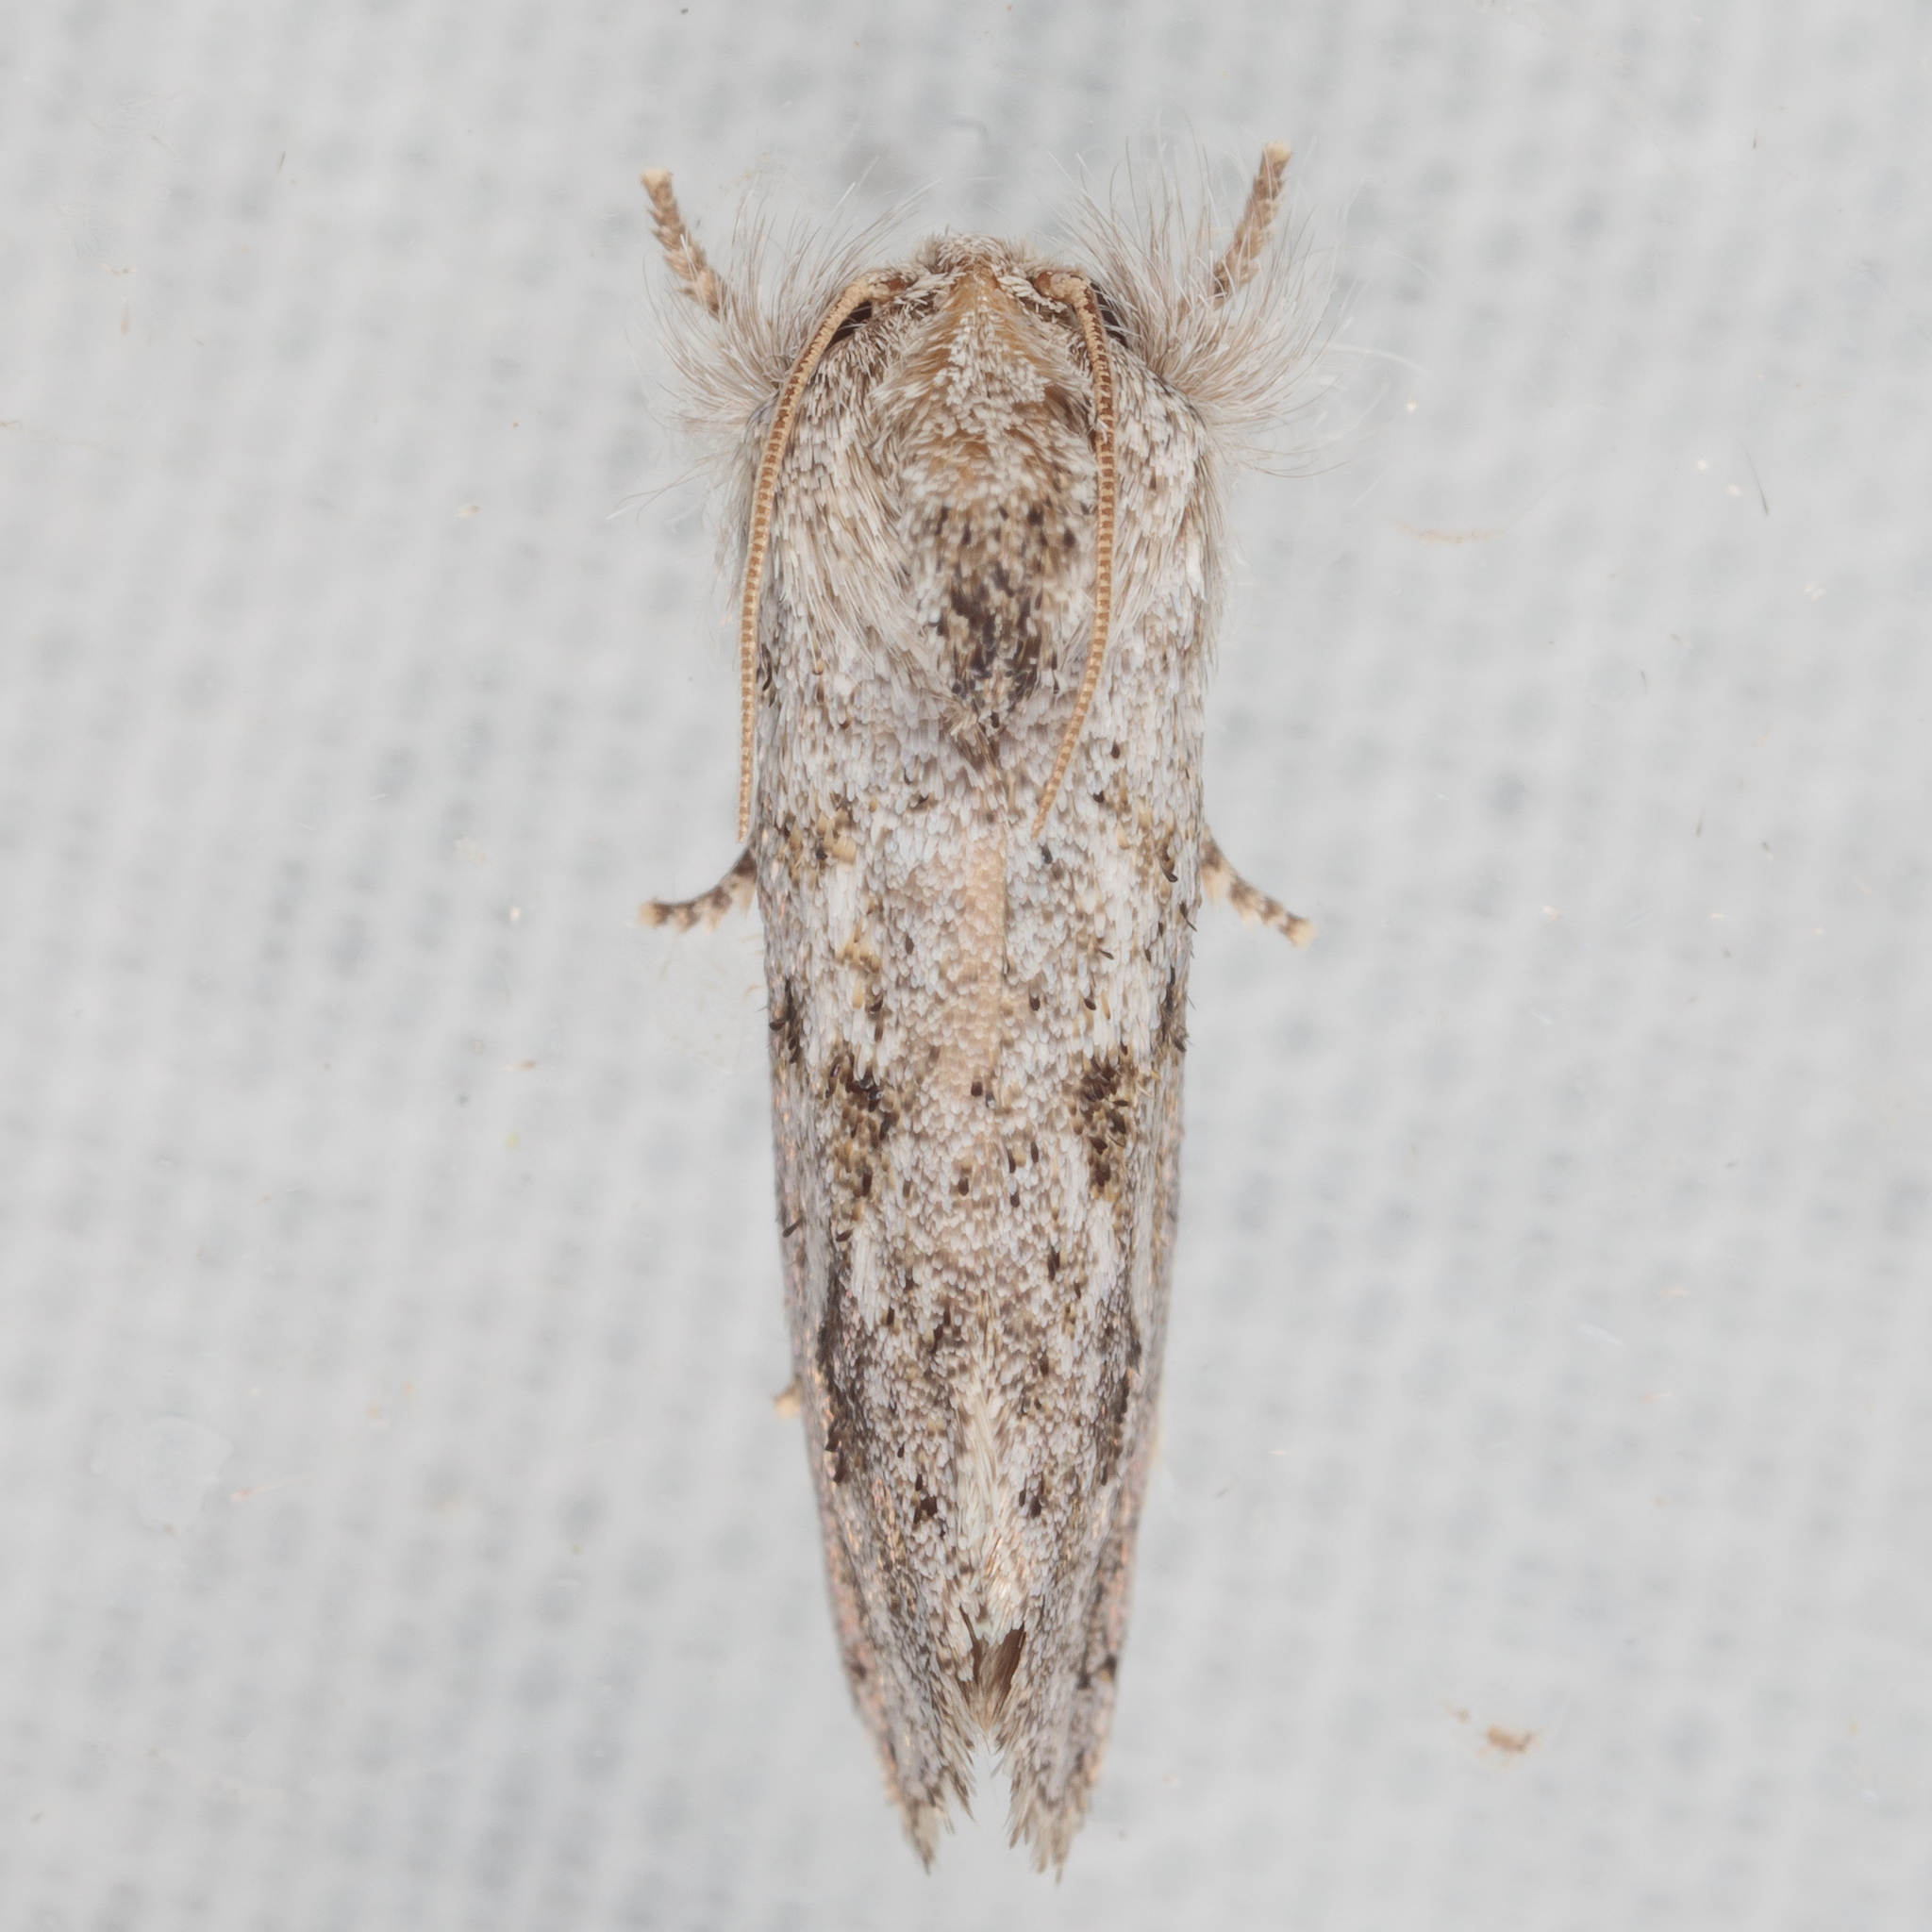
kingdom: Animalia
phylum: Arthropoda
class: Insecta
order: Lepidoptera
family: Tineidae
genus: Acrolophus
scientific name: Acrolophus griseus
